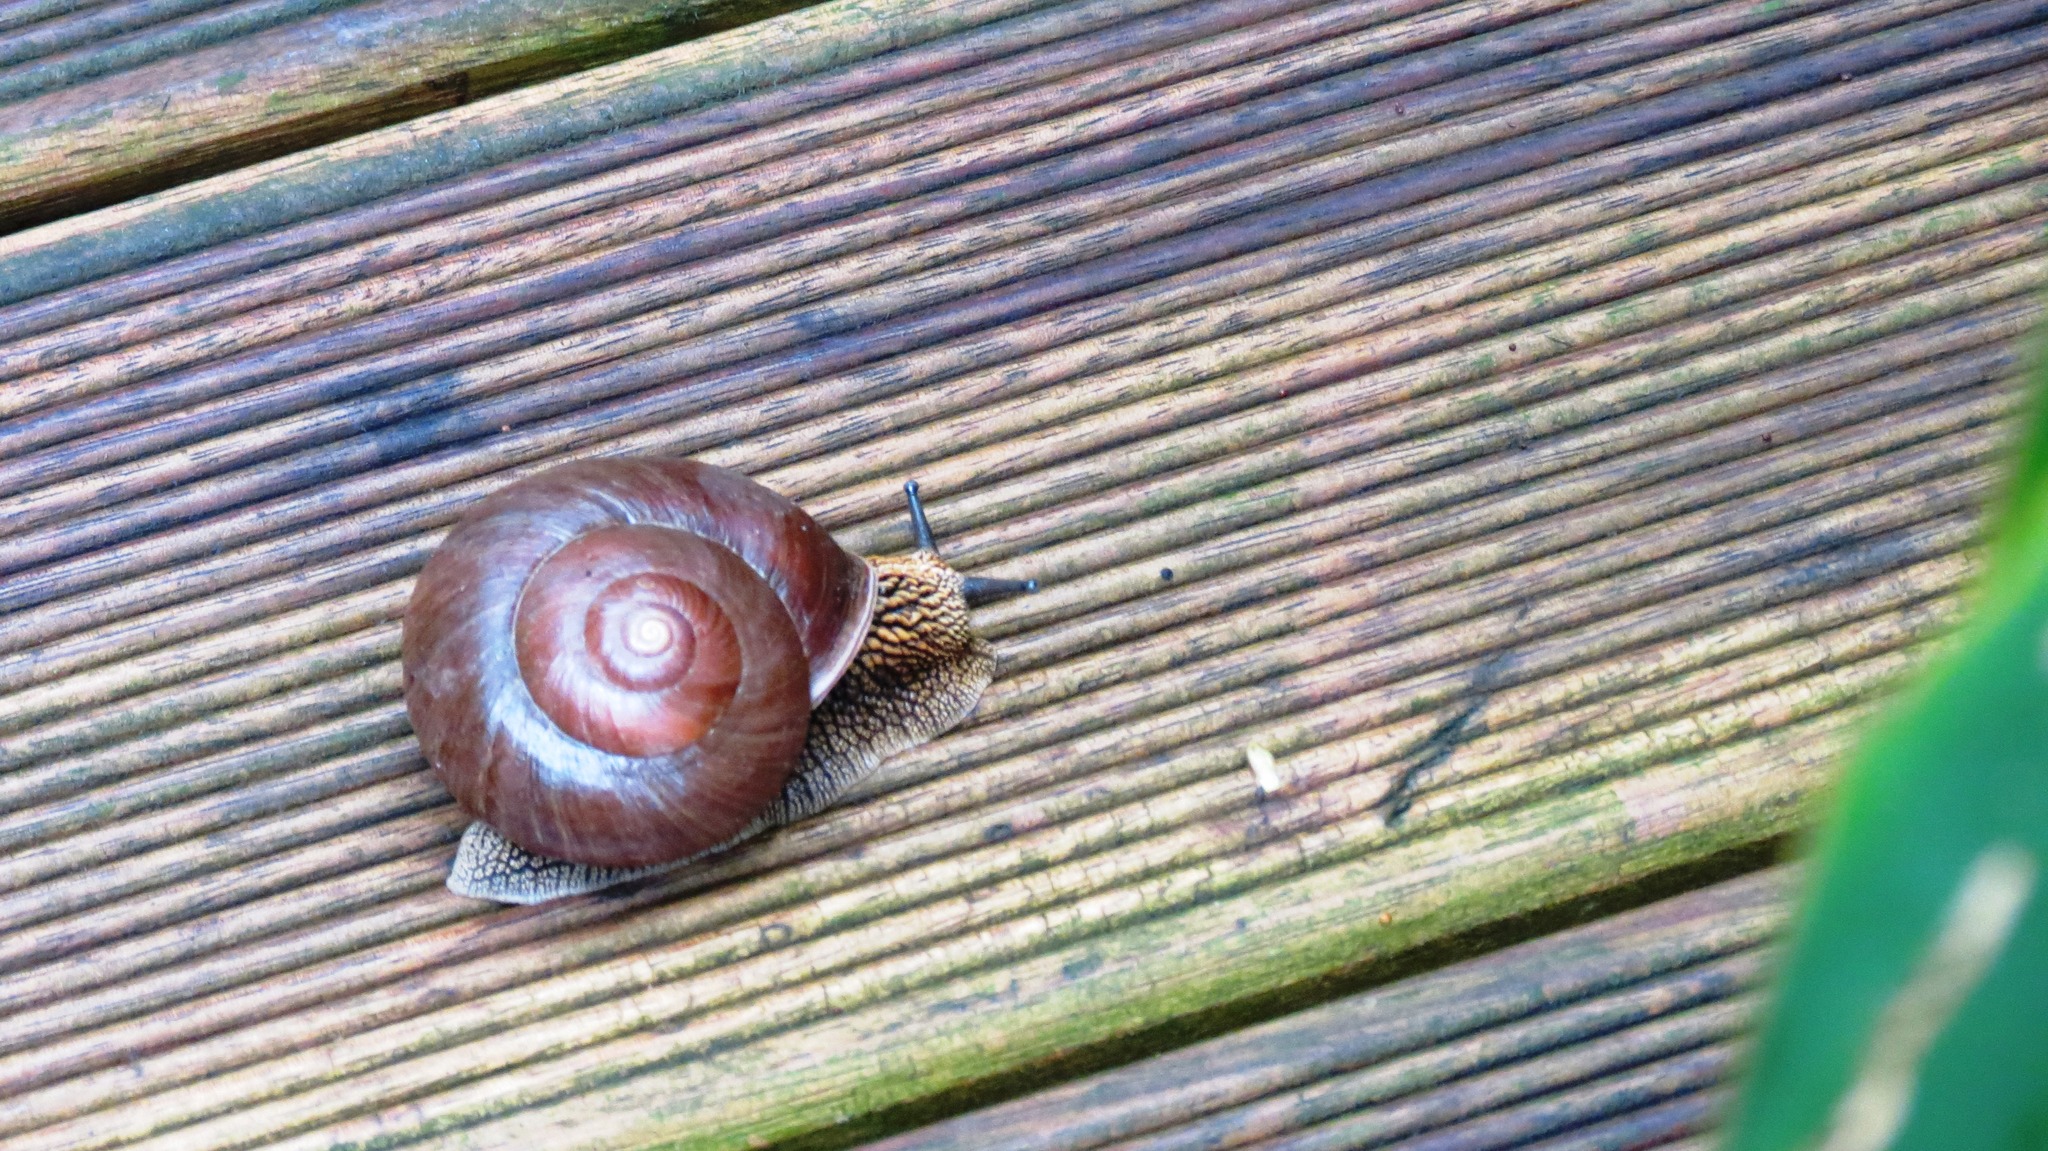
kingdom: Animalia
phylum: Mollusca
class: Gastropoda
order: Stylommatophora
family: Camaenidae
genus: Nesiohelix
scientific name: Nesiohelix swinhoei
